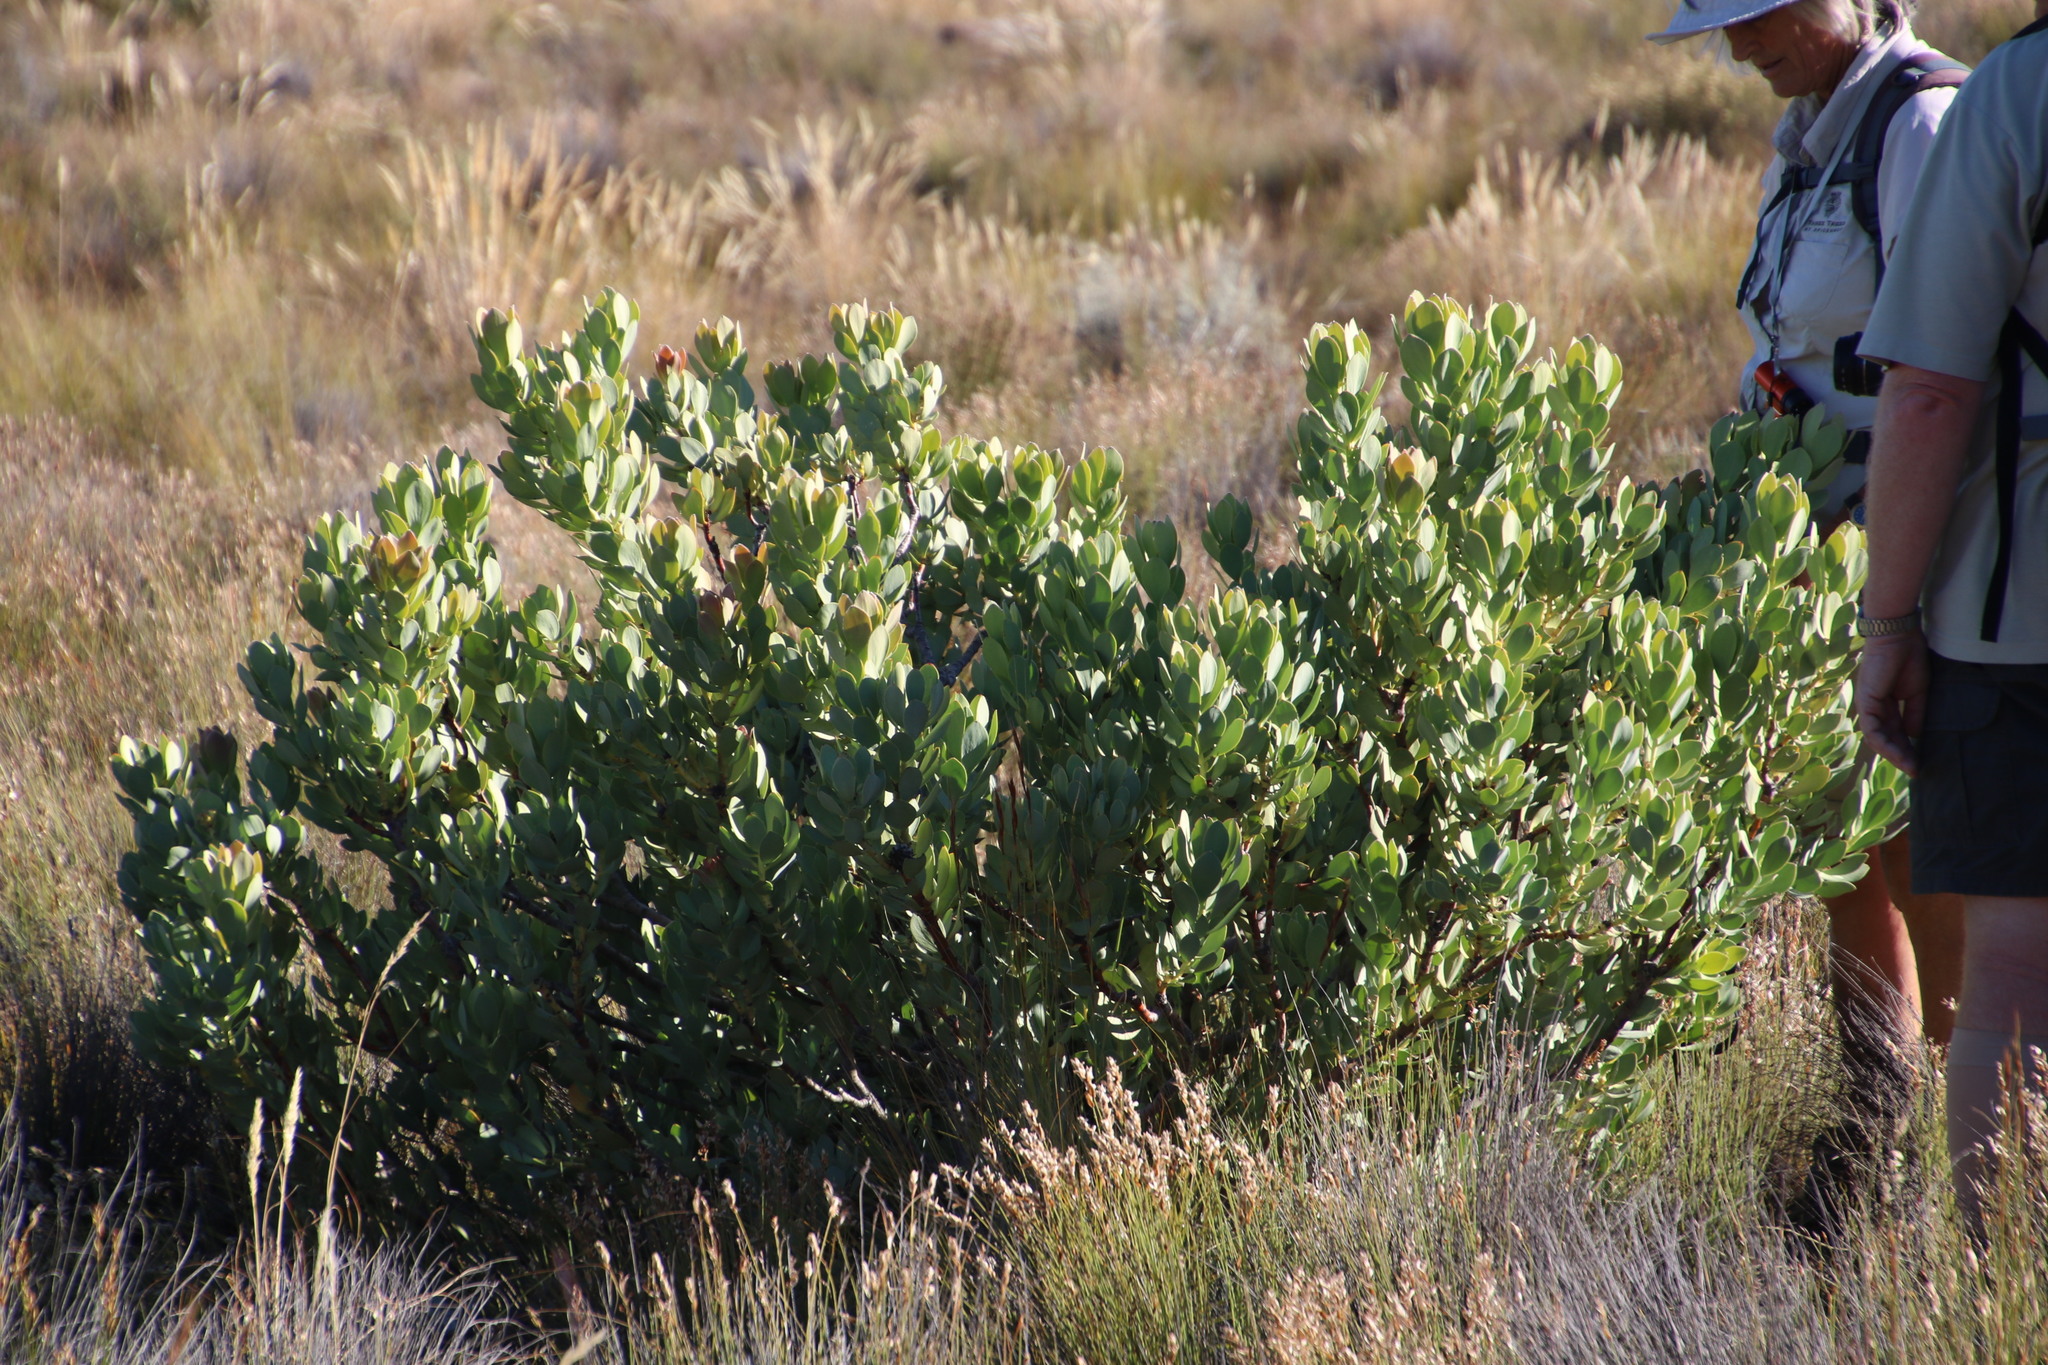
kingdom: Plantae
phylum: Tracheophyta
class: Magnoliopsida
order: Proteales
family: Proteaceae
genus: Leucadendron
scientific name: Leucadendron arcuatum
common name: Red-edge conebush
